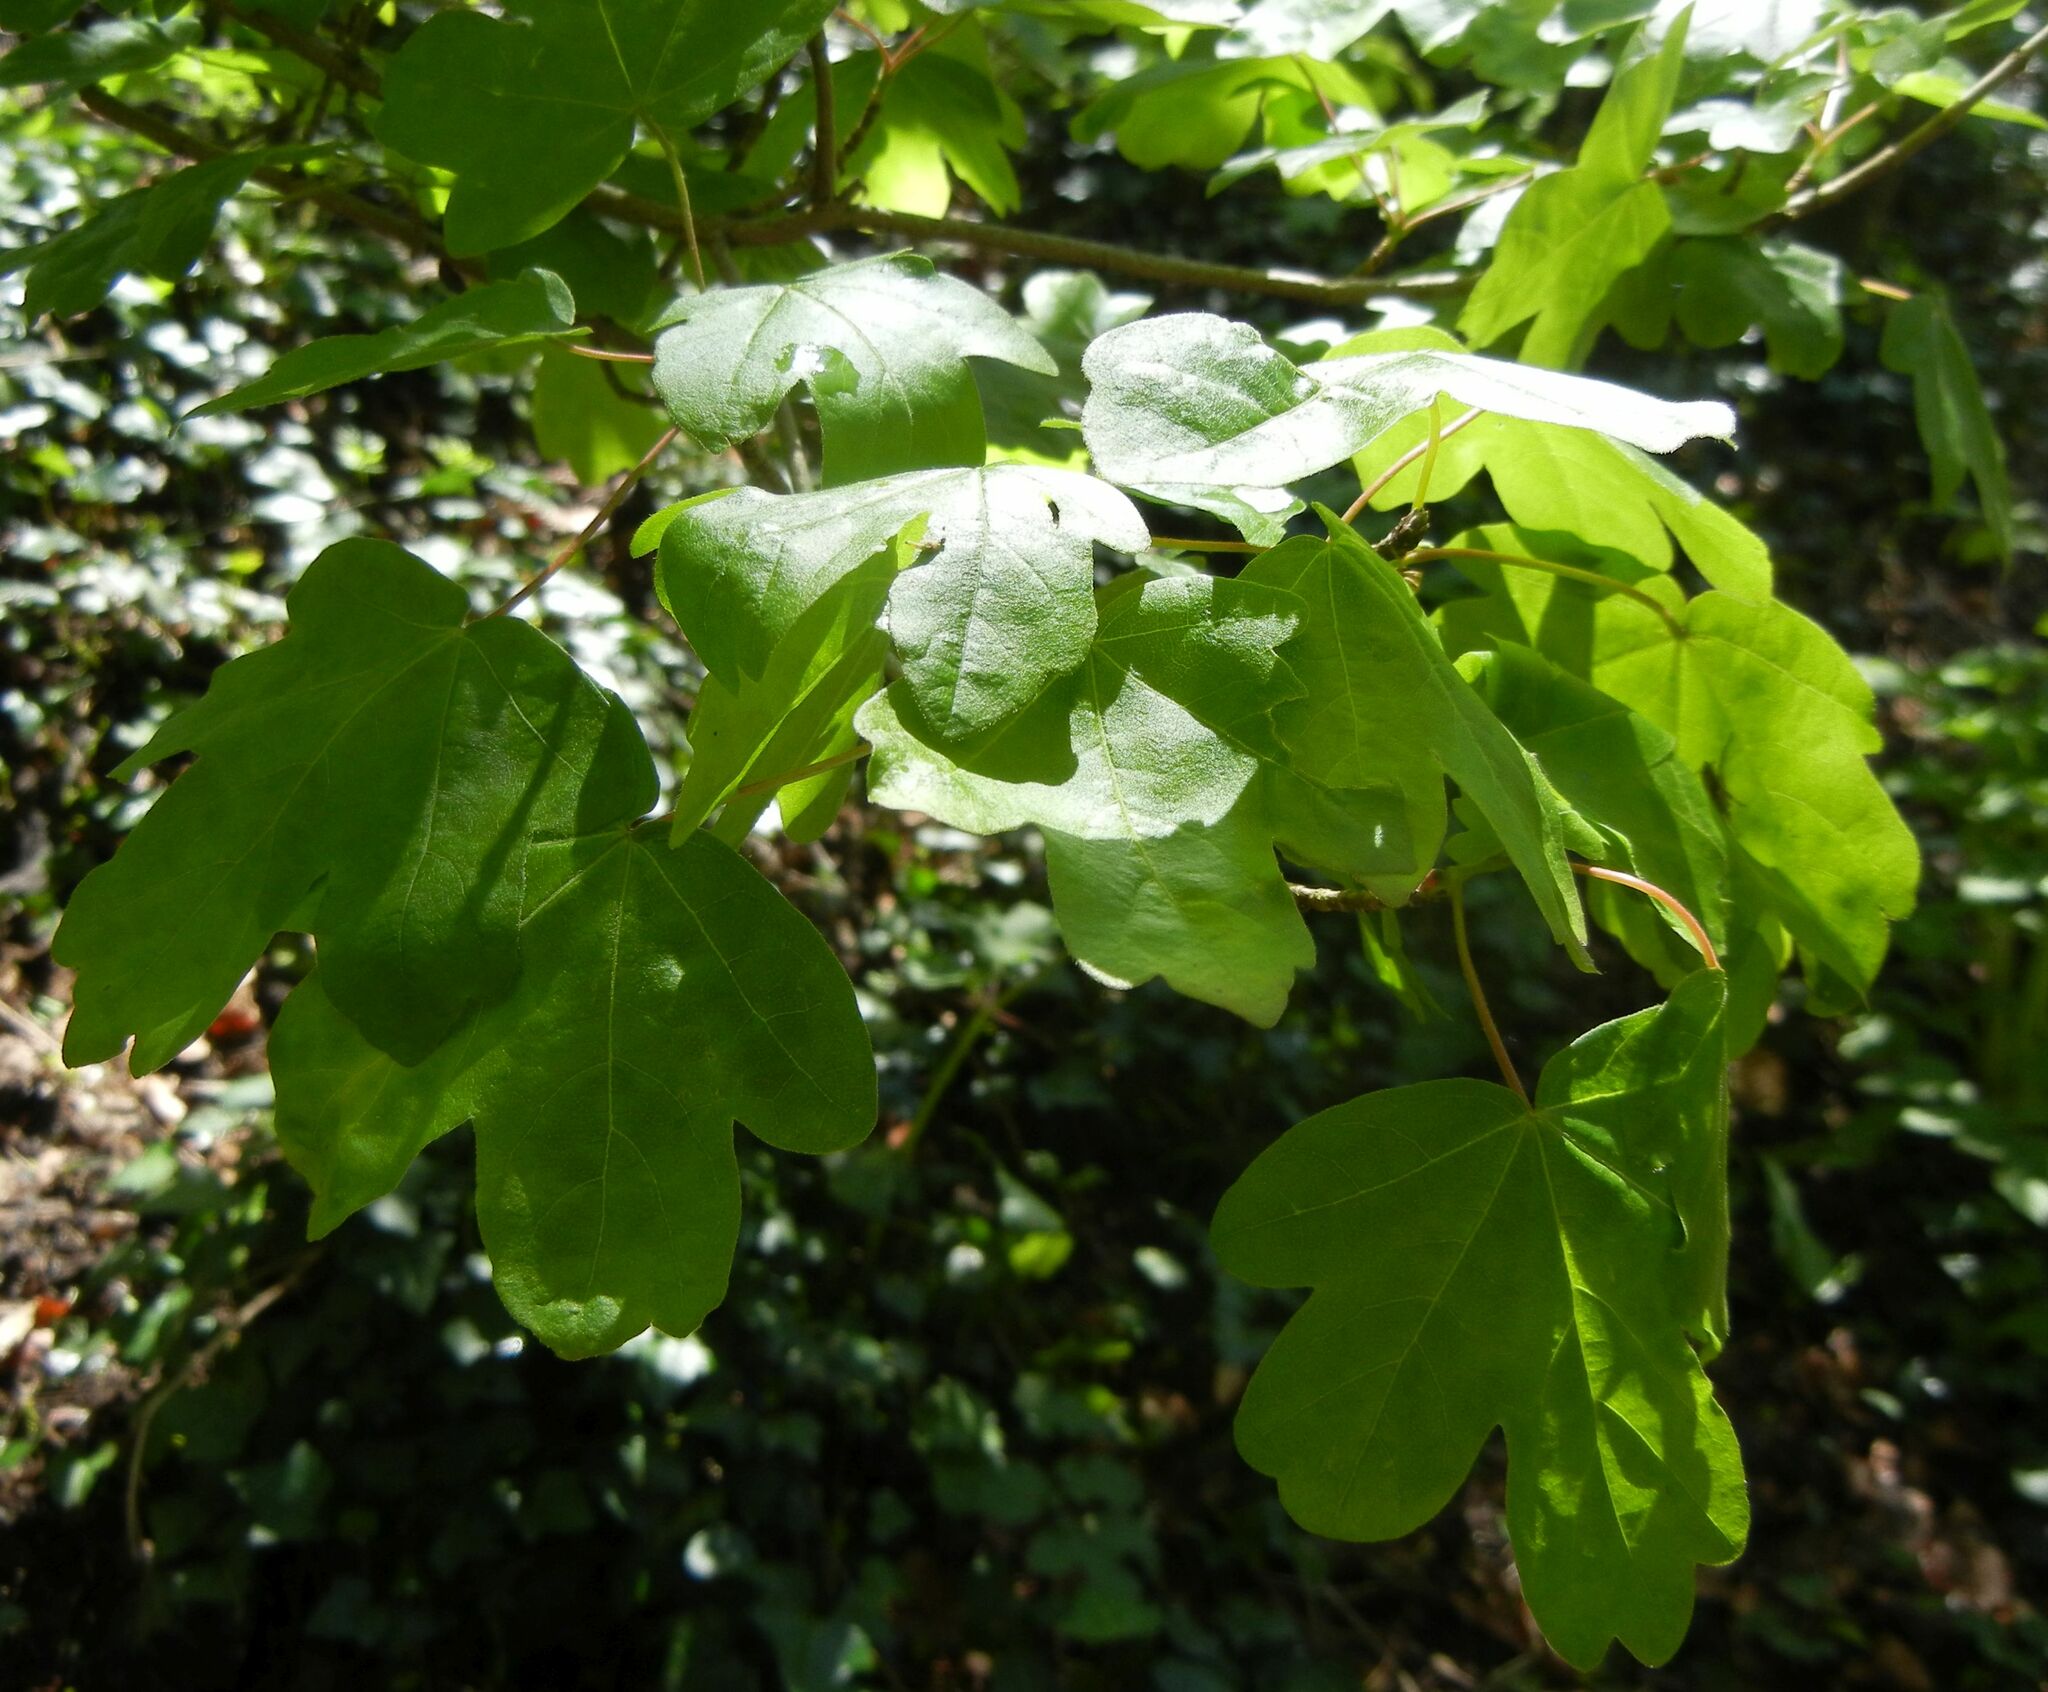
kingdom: Plantae
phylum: Tracheophyta
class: Magnoliopsida
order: Sapindales
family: Sapindaceae
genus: Acer
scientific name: Acer campestre
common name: Field maple
